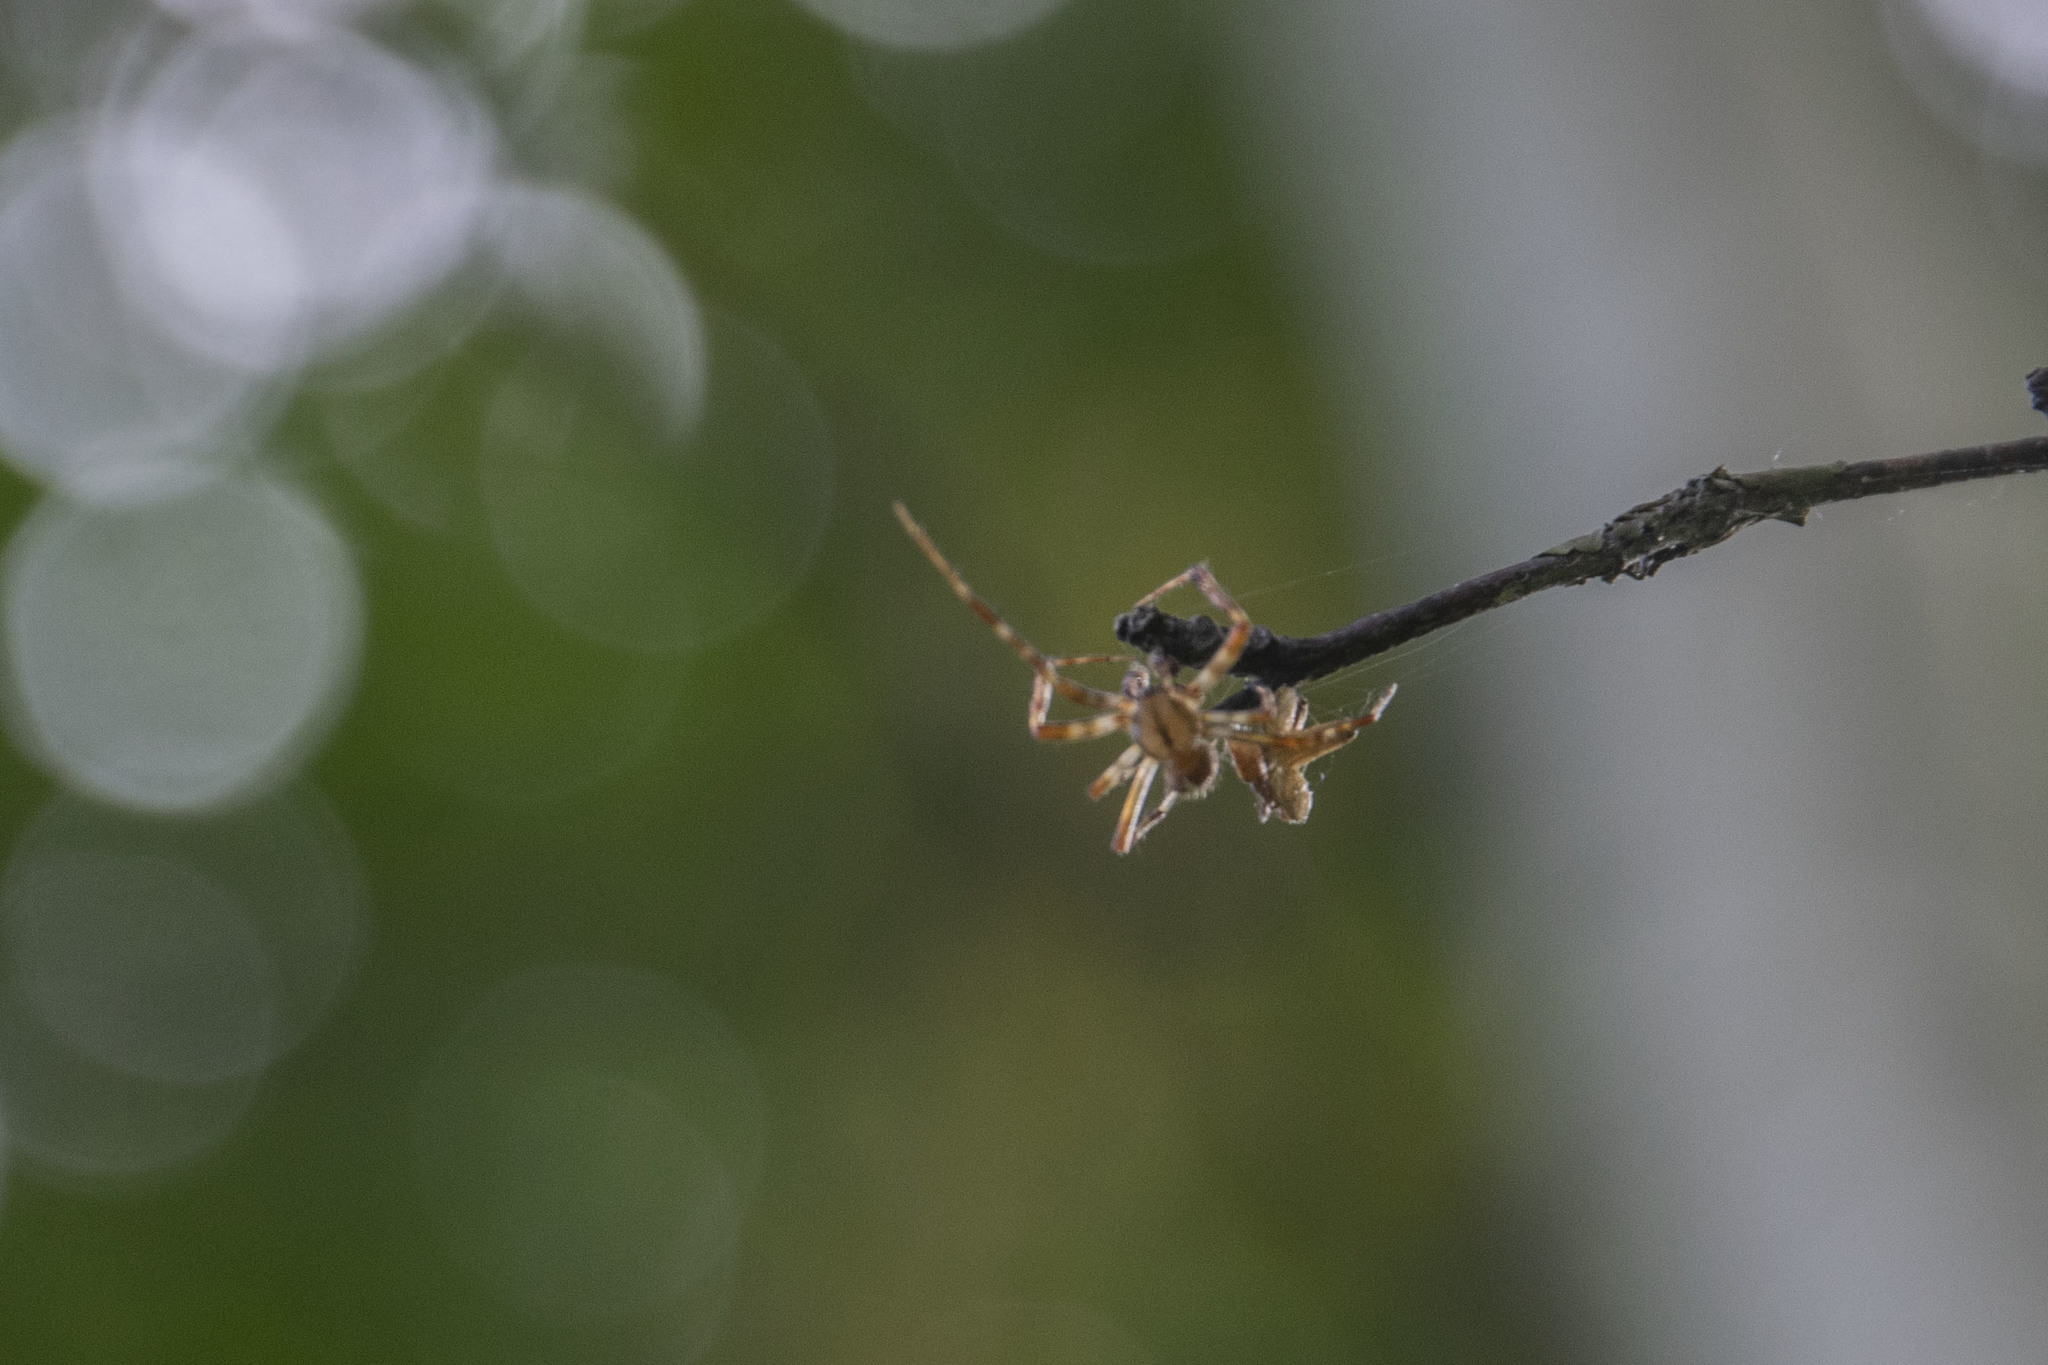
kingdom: Animalia
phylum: Arthropoda
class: Arachnida
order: Araneae
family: Araneidae
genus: Araneus
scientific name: Araneus diadematus
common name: Cross orbweaver
